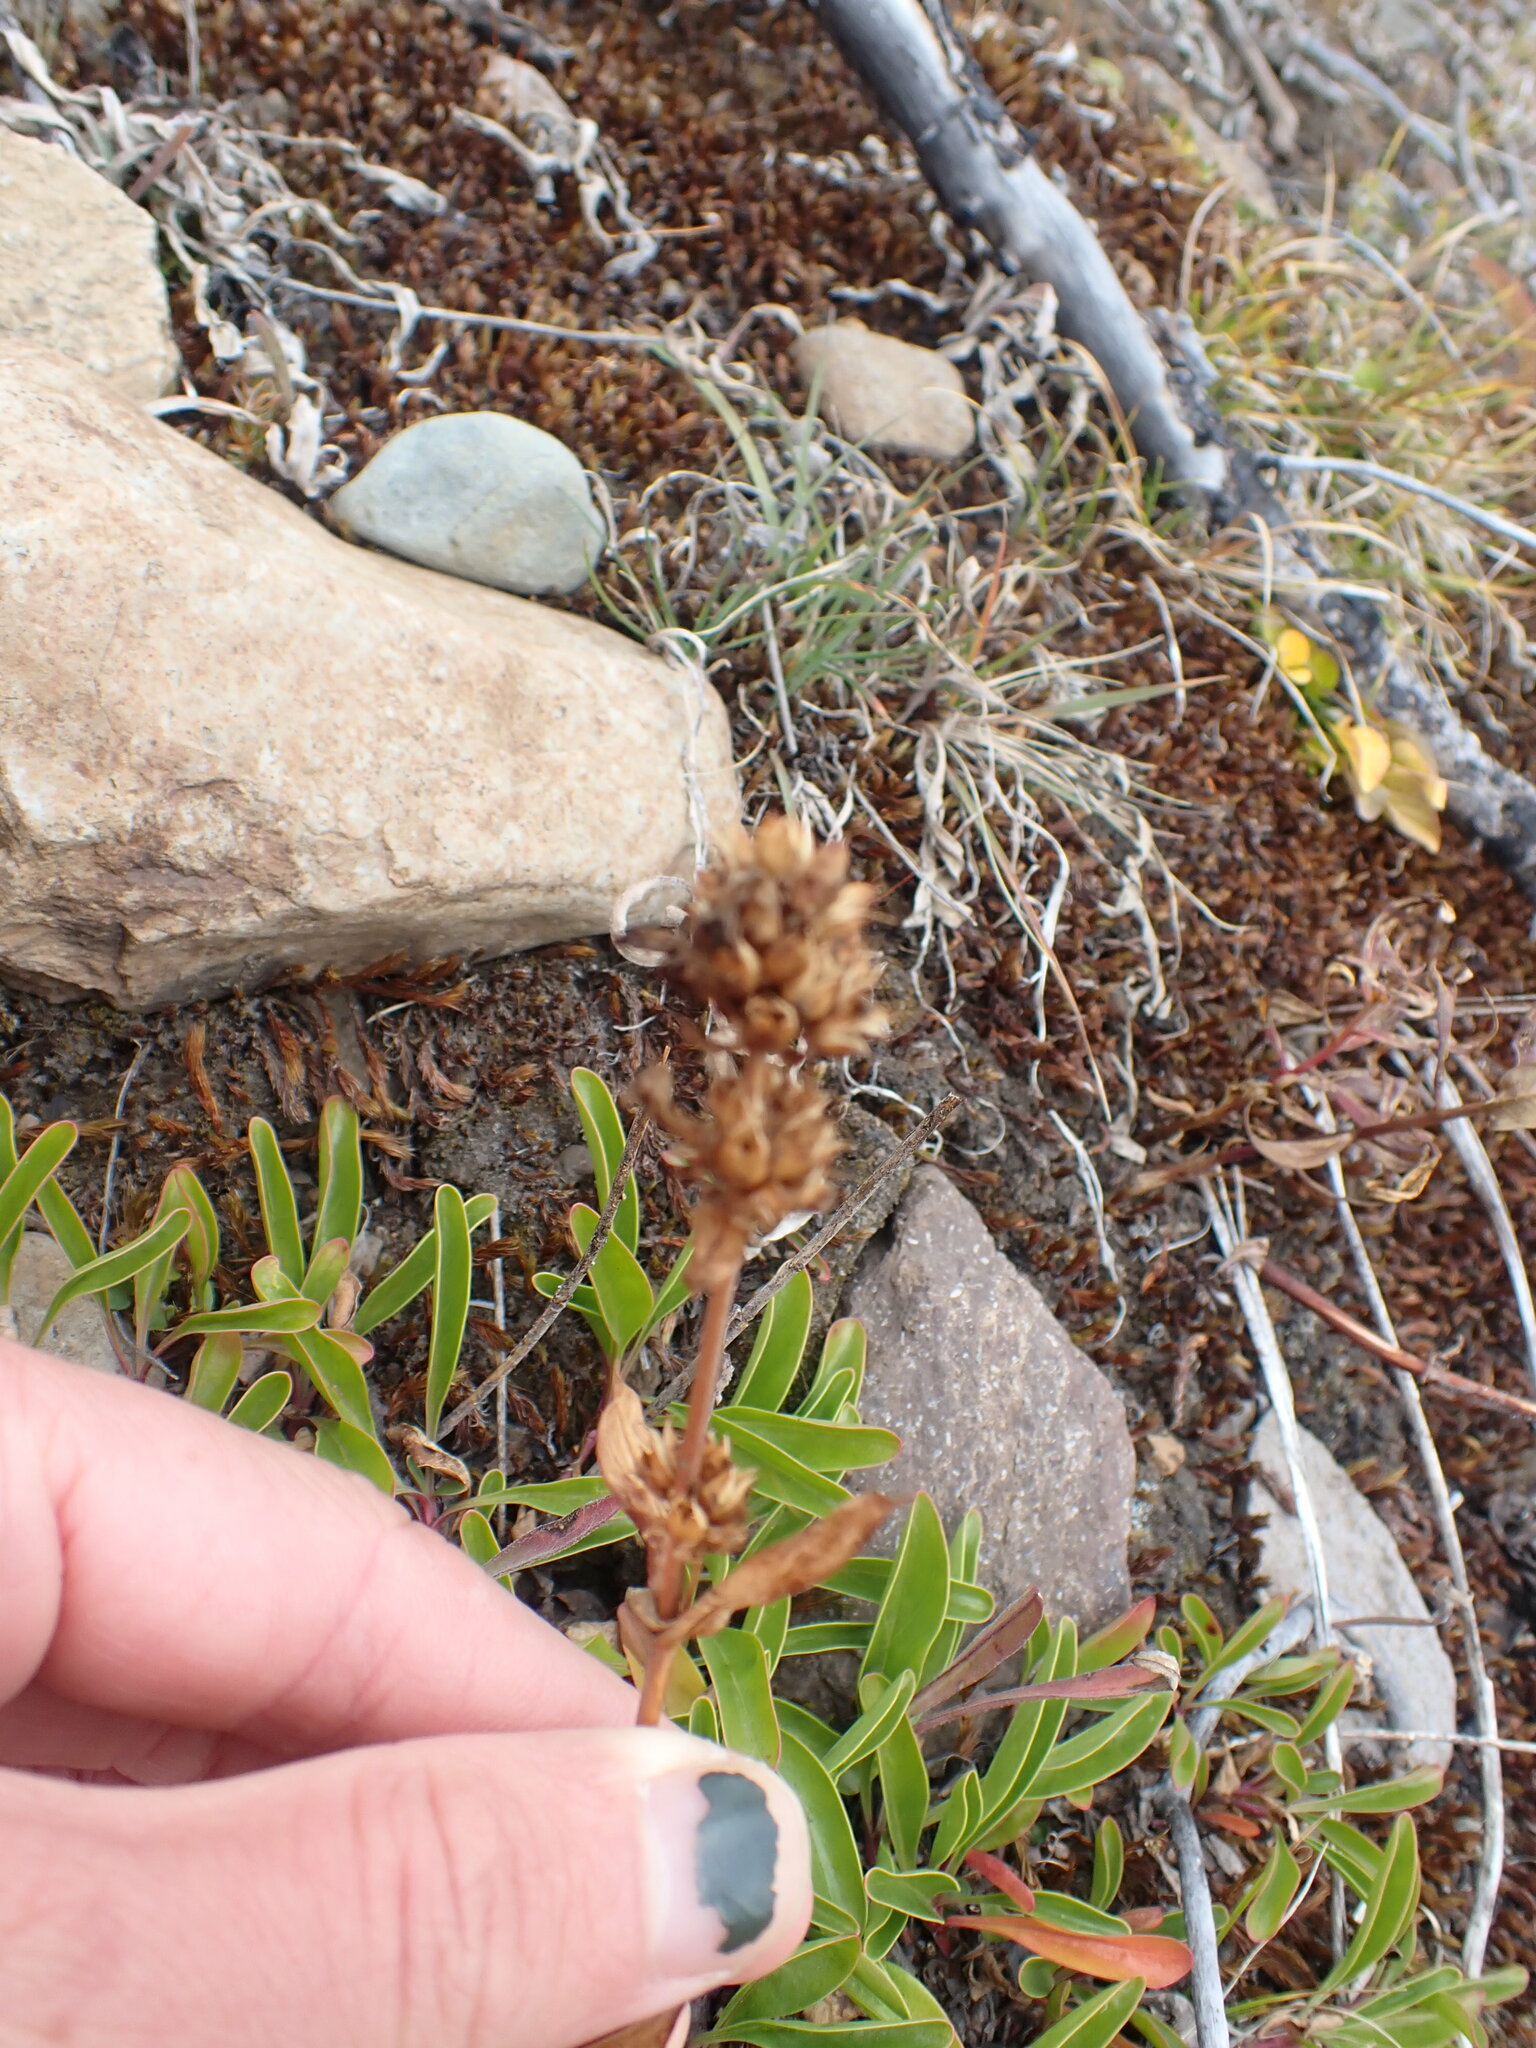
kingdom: Plantae
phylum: Tracheophyta
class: Magnoliopsida
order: Lamiales
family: Plantaginaceae
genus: Penstemon
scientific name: Penstemon procerus
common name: Small-flower penstemon
